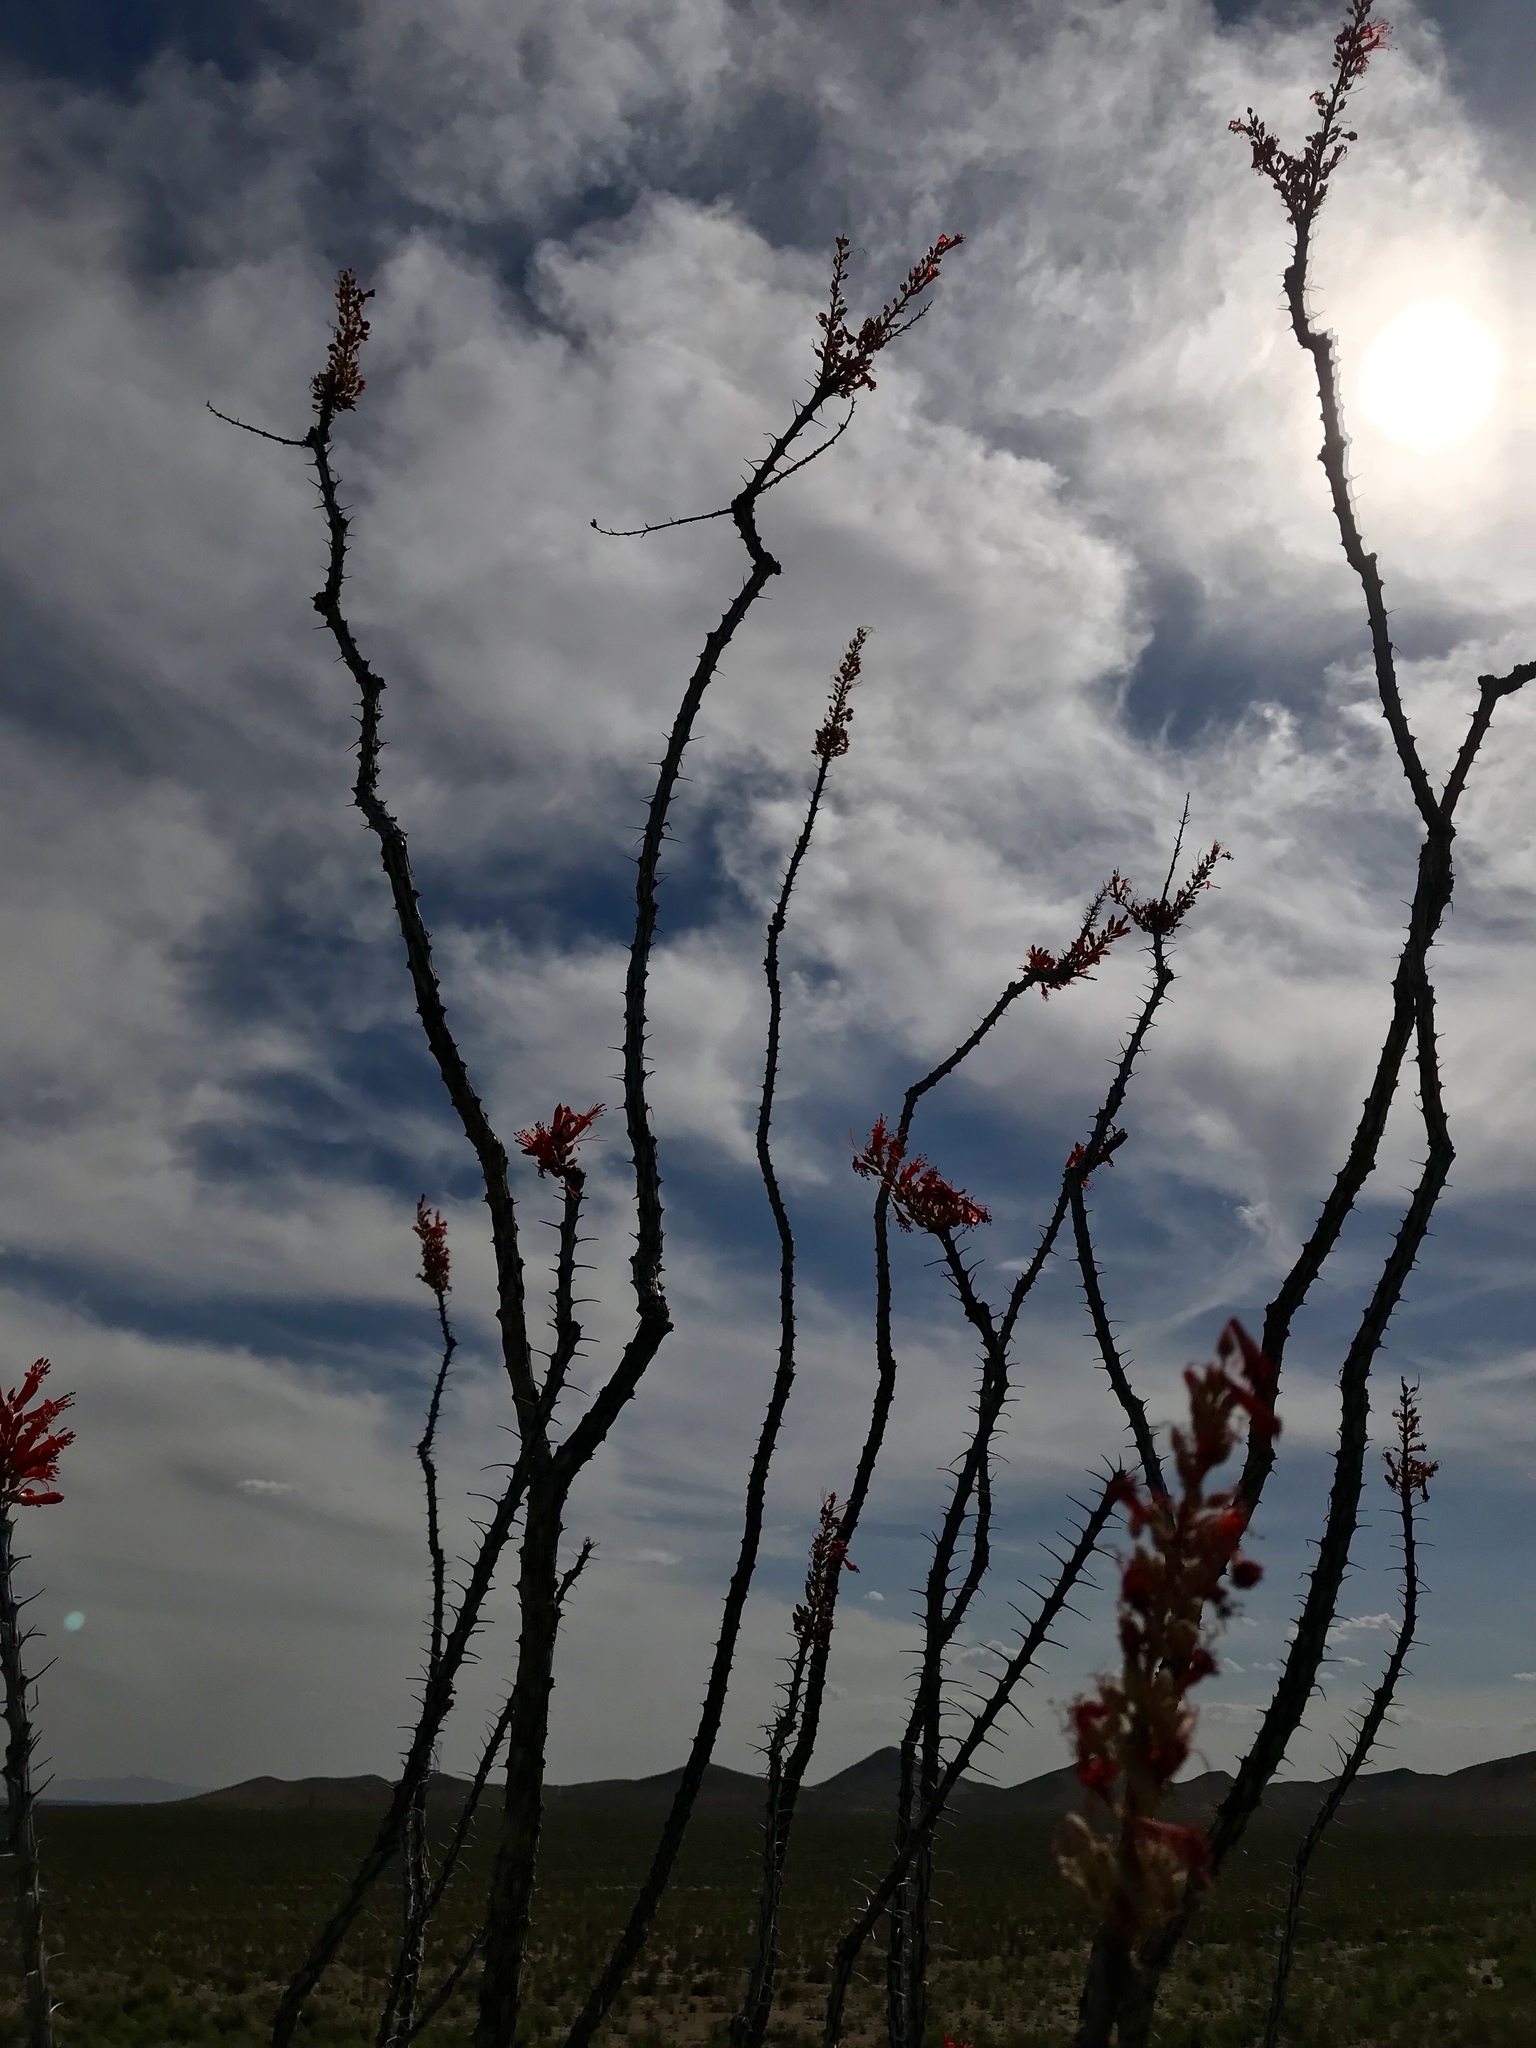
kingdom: Plantae
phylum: Tracheophyta
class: Magnoliopsida
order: Ericales
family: Fouquieriaceae
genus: Fouquieria
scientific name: Fouquieria splendens
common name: Vine-cactus
